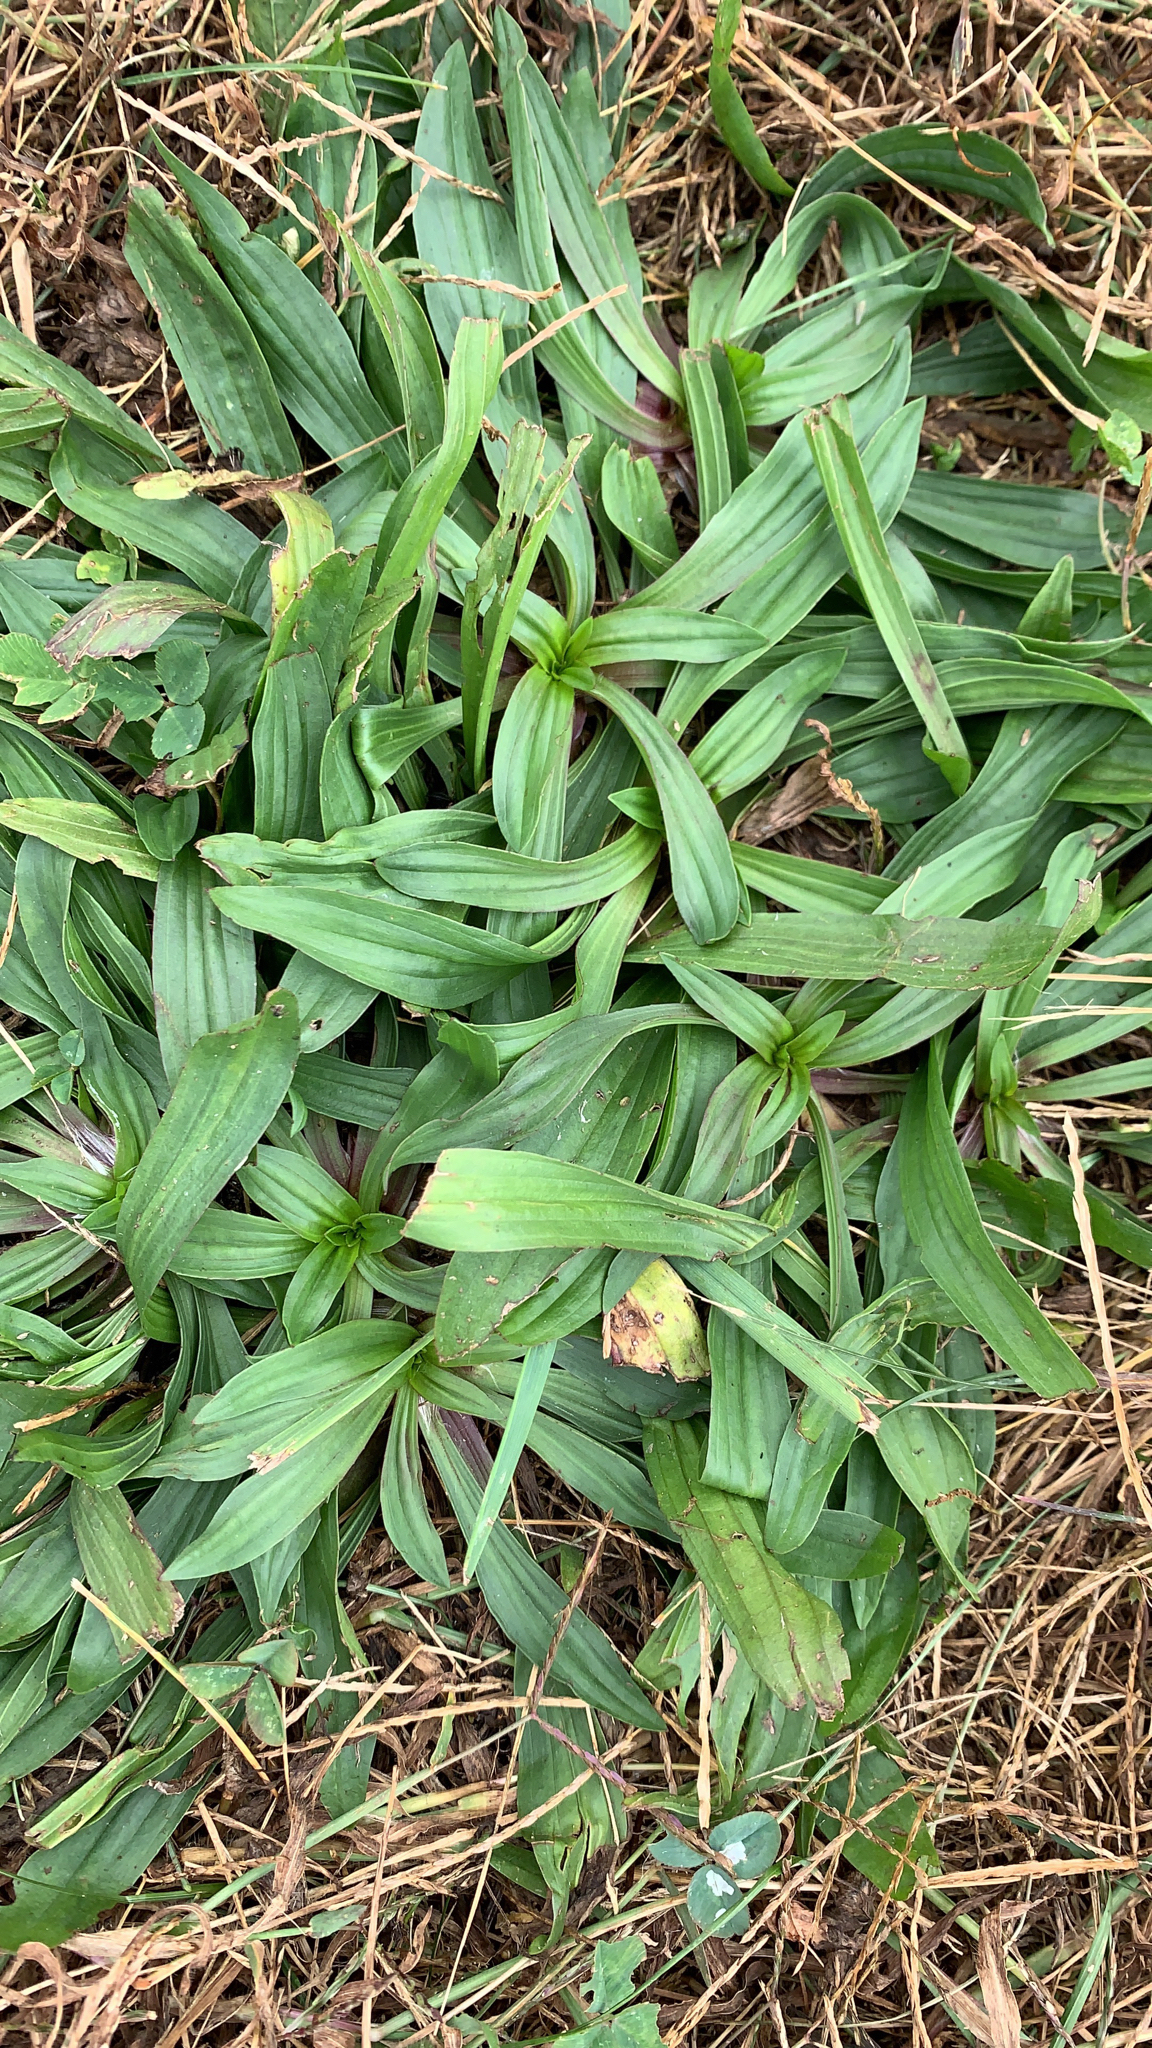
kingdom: Plantae
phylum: Tracheophyta
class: Magnoliopsida
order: Lamiales
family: Plantaginaceae
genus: Plantago
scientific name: Plantago lanceolata
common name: Ribwort plantain
